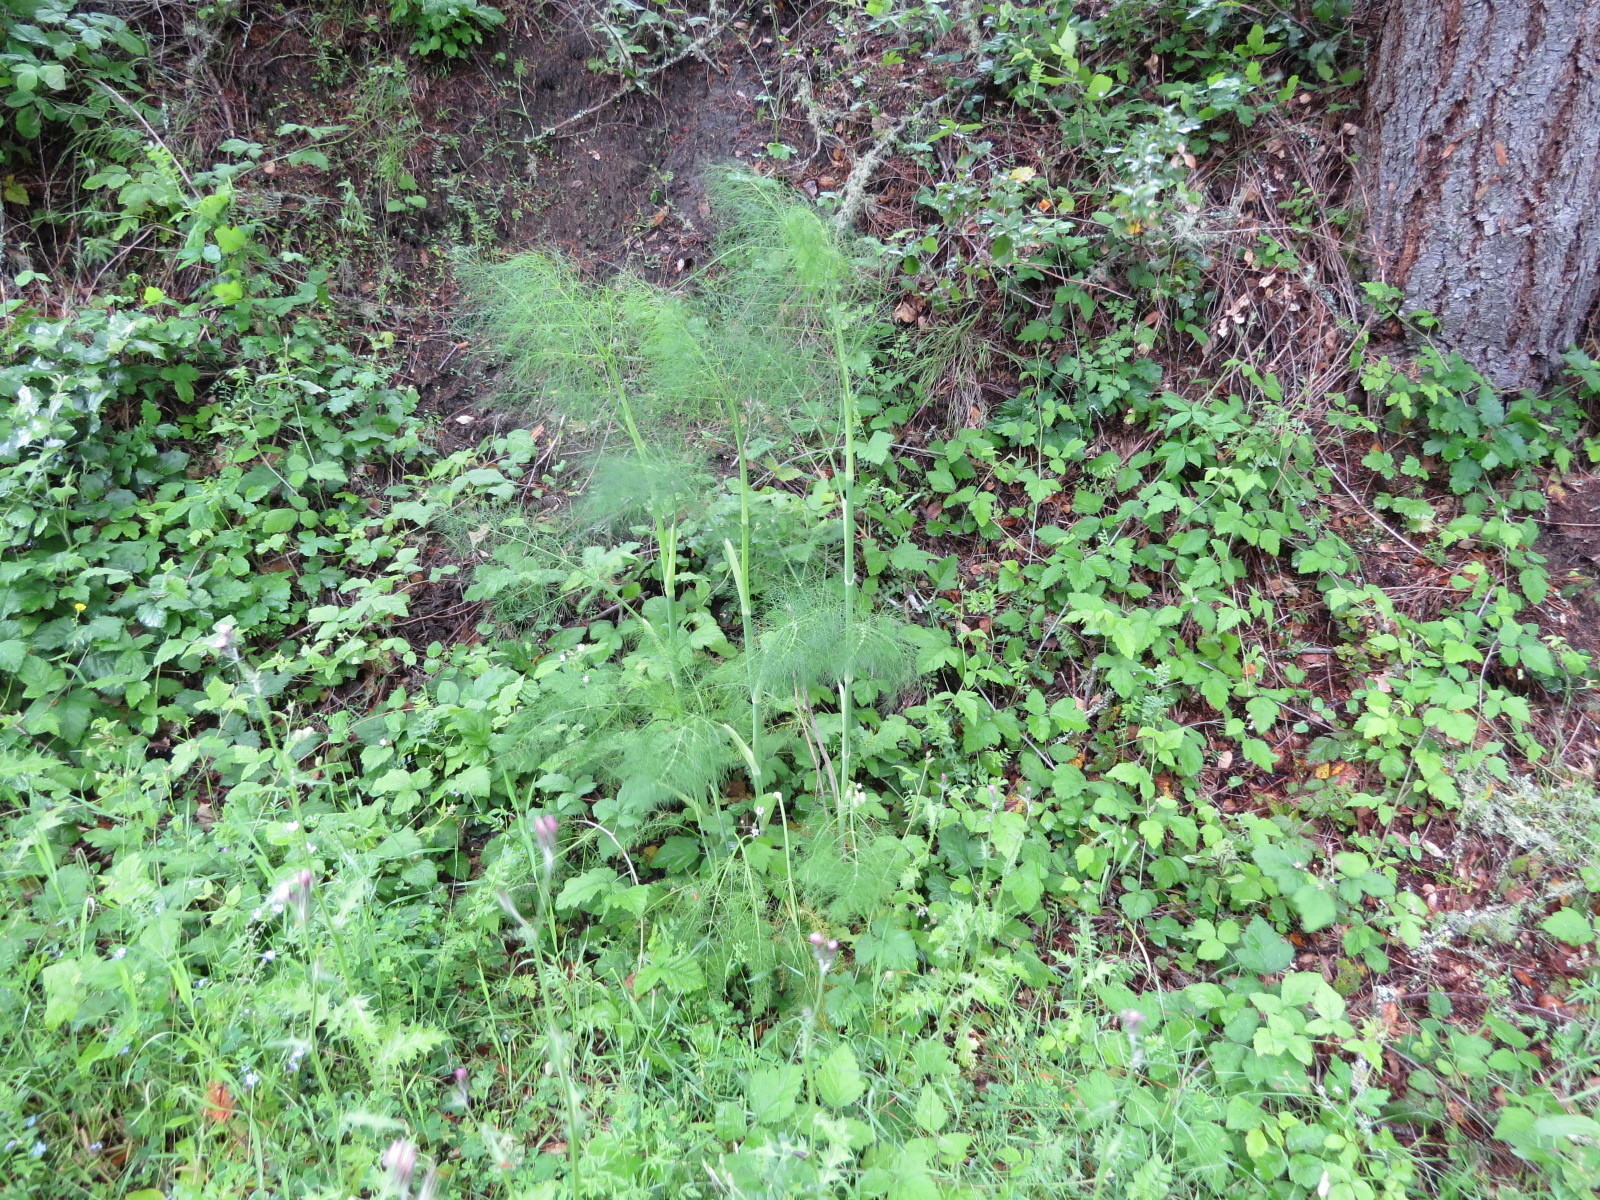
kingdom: Plantae
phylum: Tracheophyta
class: Magnoliopsida
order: Apiales
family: Apiaceae
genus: Foeniculum
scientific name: Foeniculum vulgare
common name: Fennel
